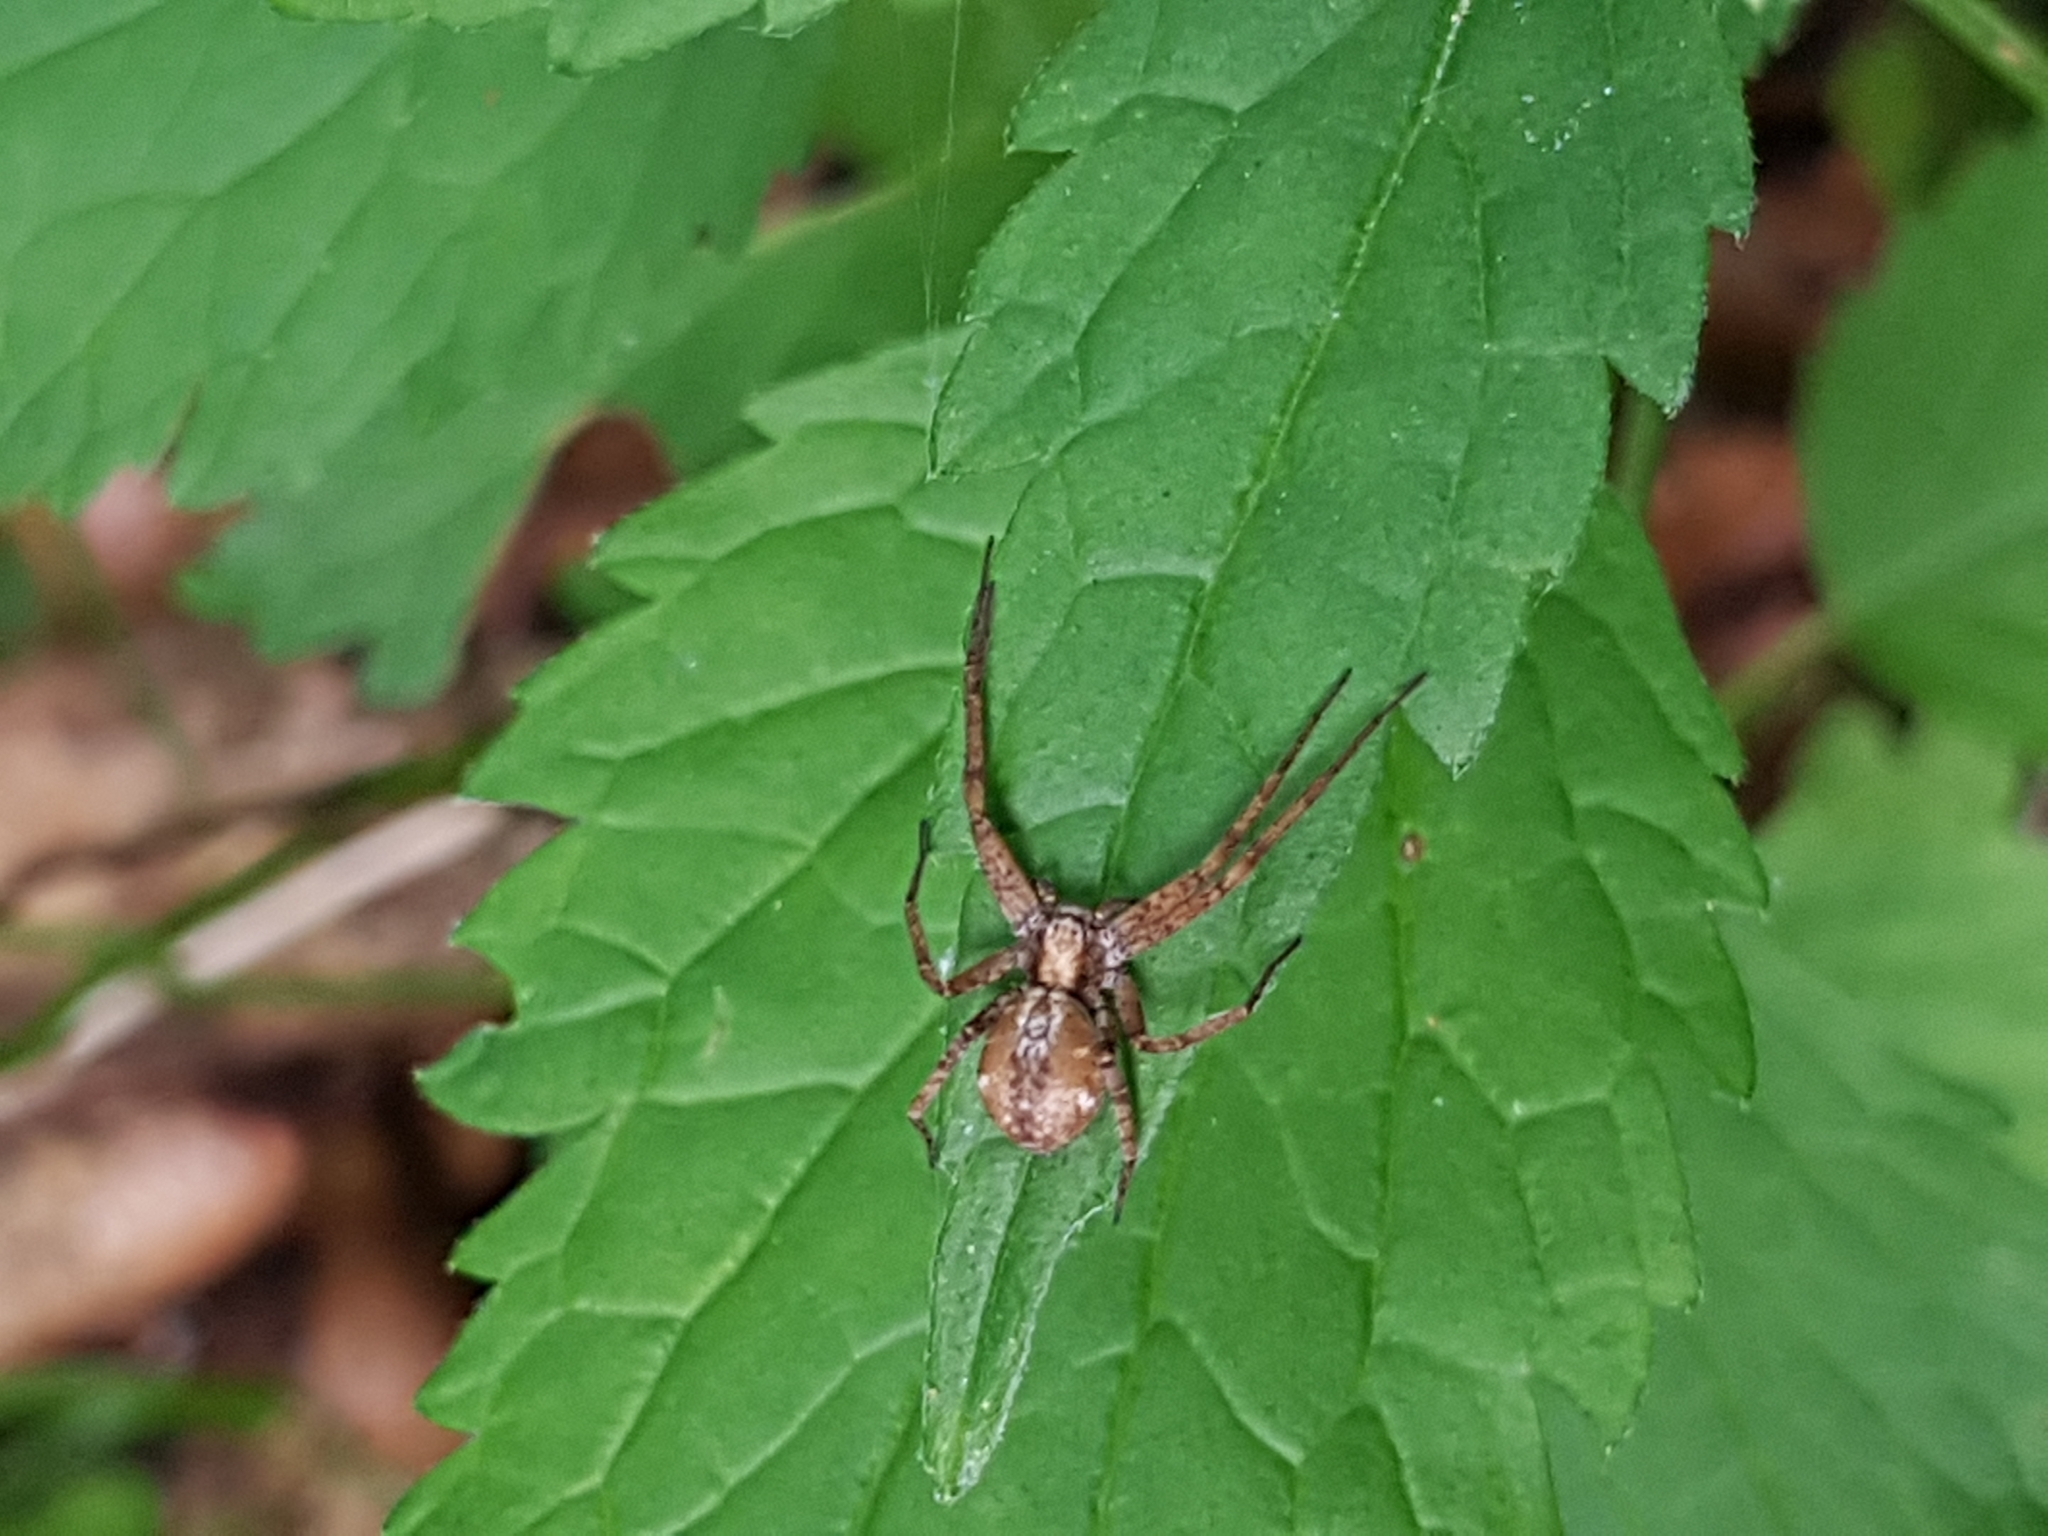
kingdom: Animalia
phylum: Arthropoda
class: Arachnida
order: Araneae
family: Philodromidae
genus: Philodromus
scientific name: Philodromus
